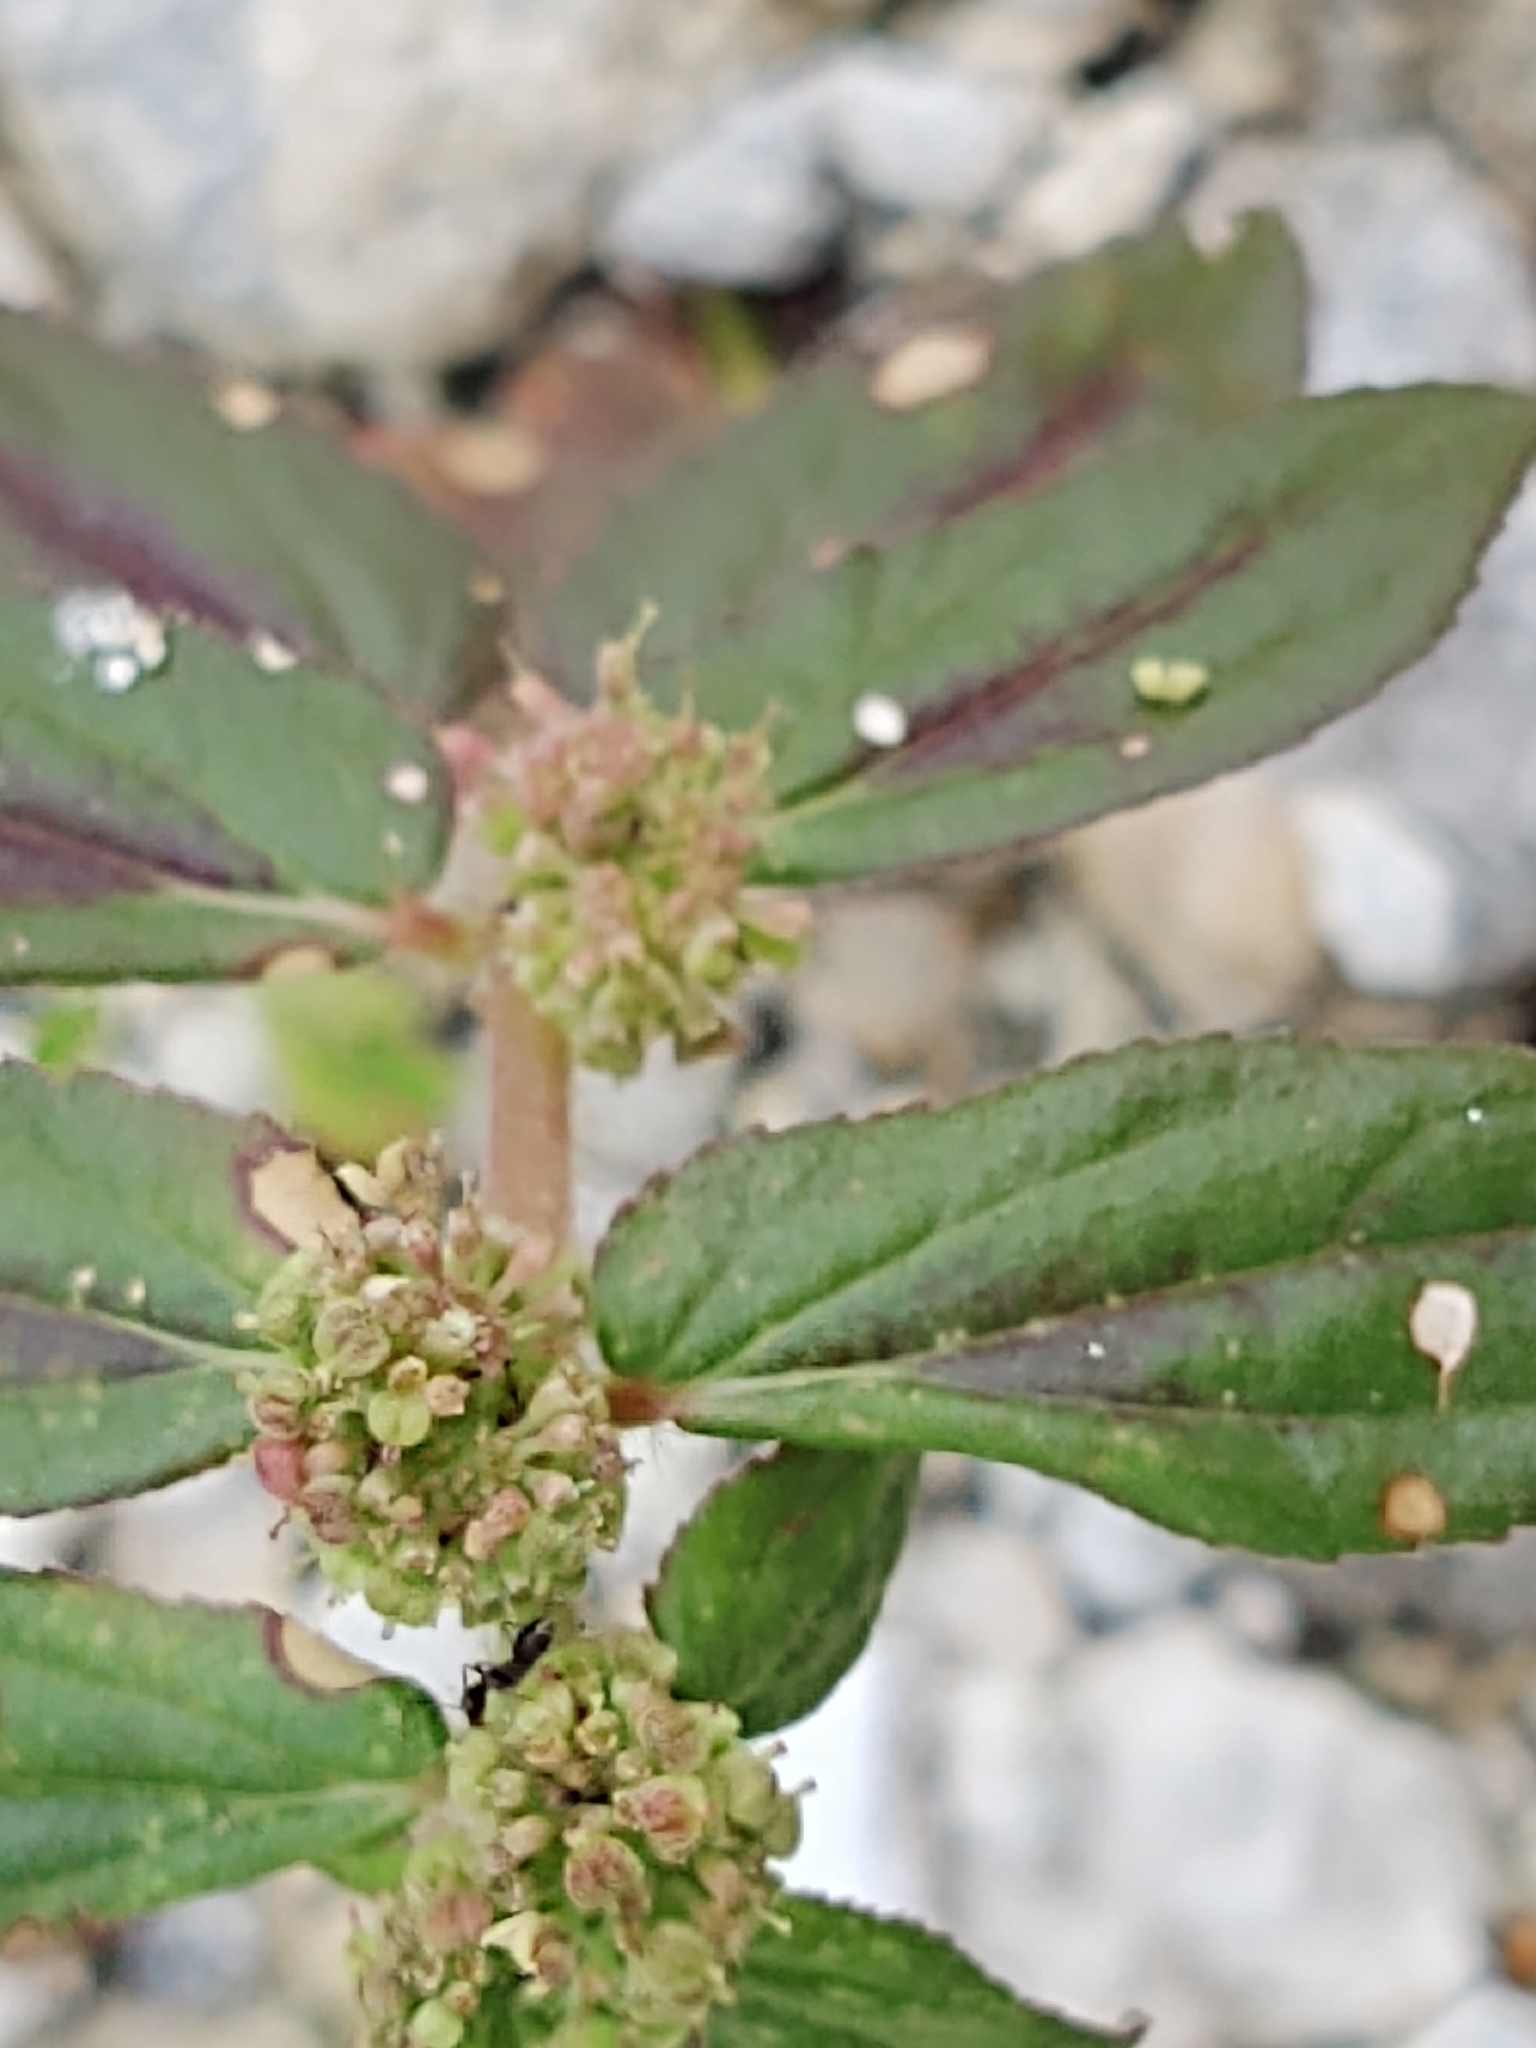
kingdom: Plantae
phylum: Tracheophyta
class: Magnoliopsida
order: Malpighiales
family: Euphorbiaceae
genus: Euphorbia
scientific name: Euphorbia hirta
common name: Pillpod sandmat
